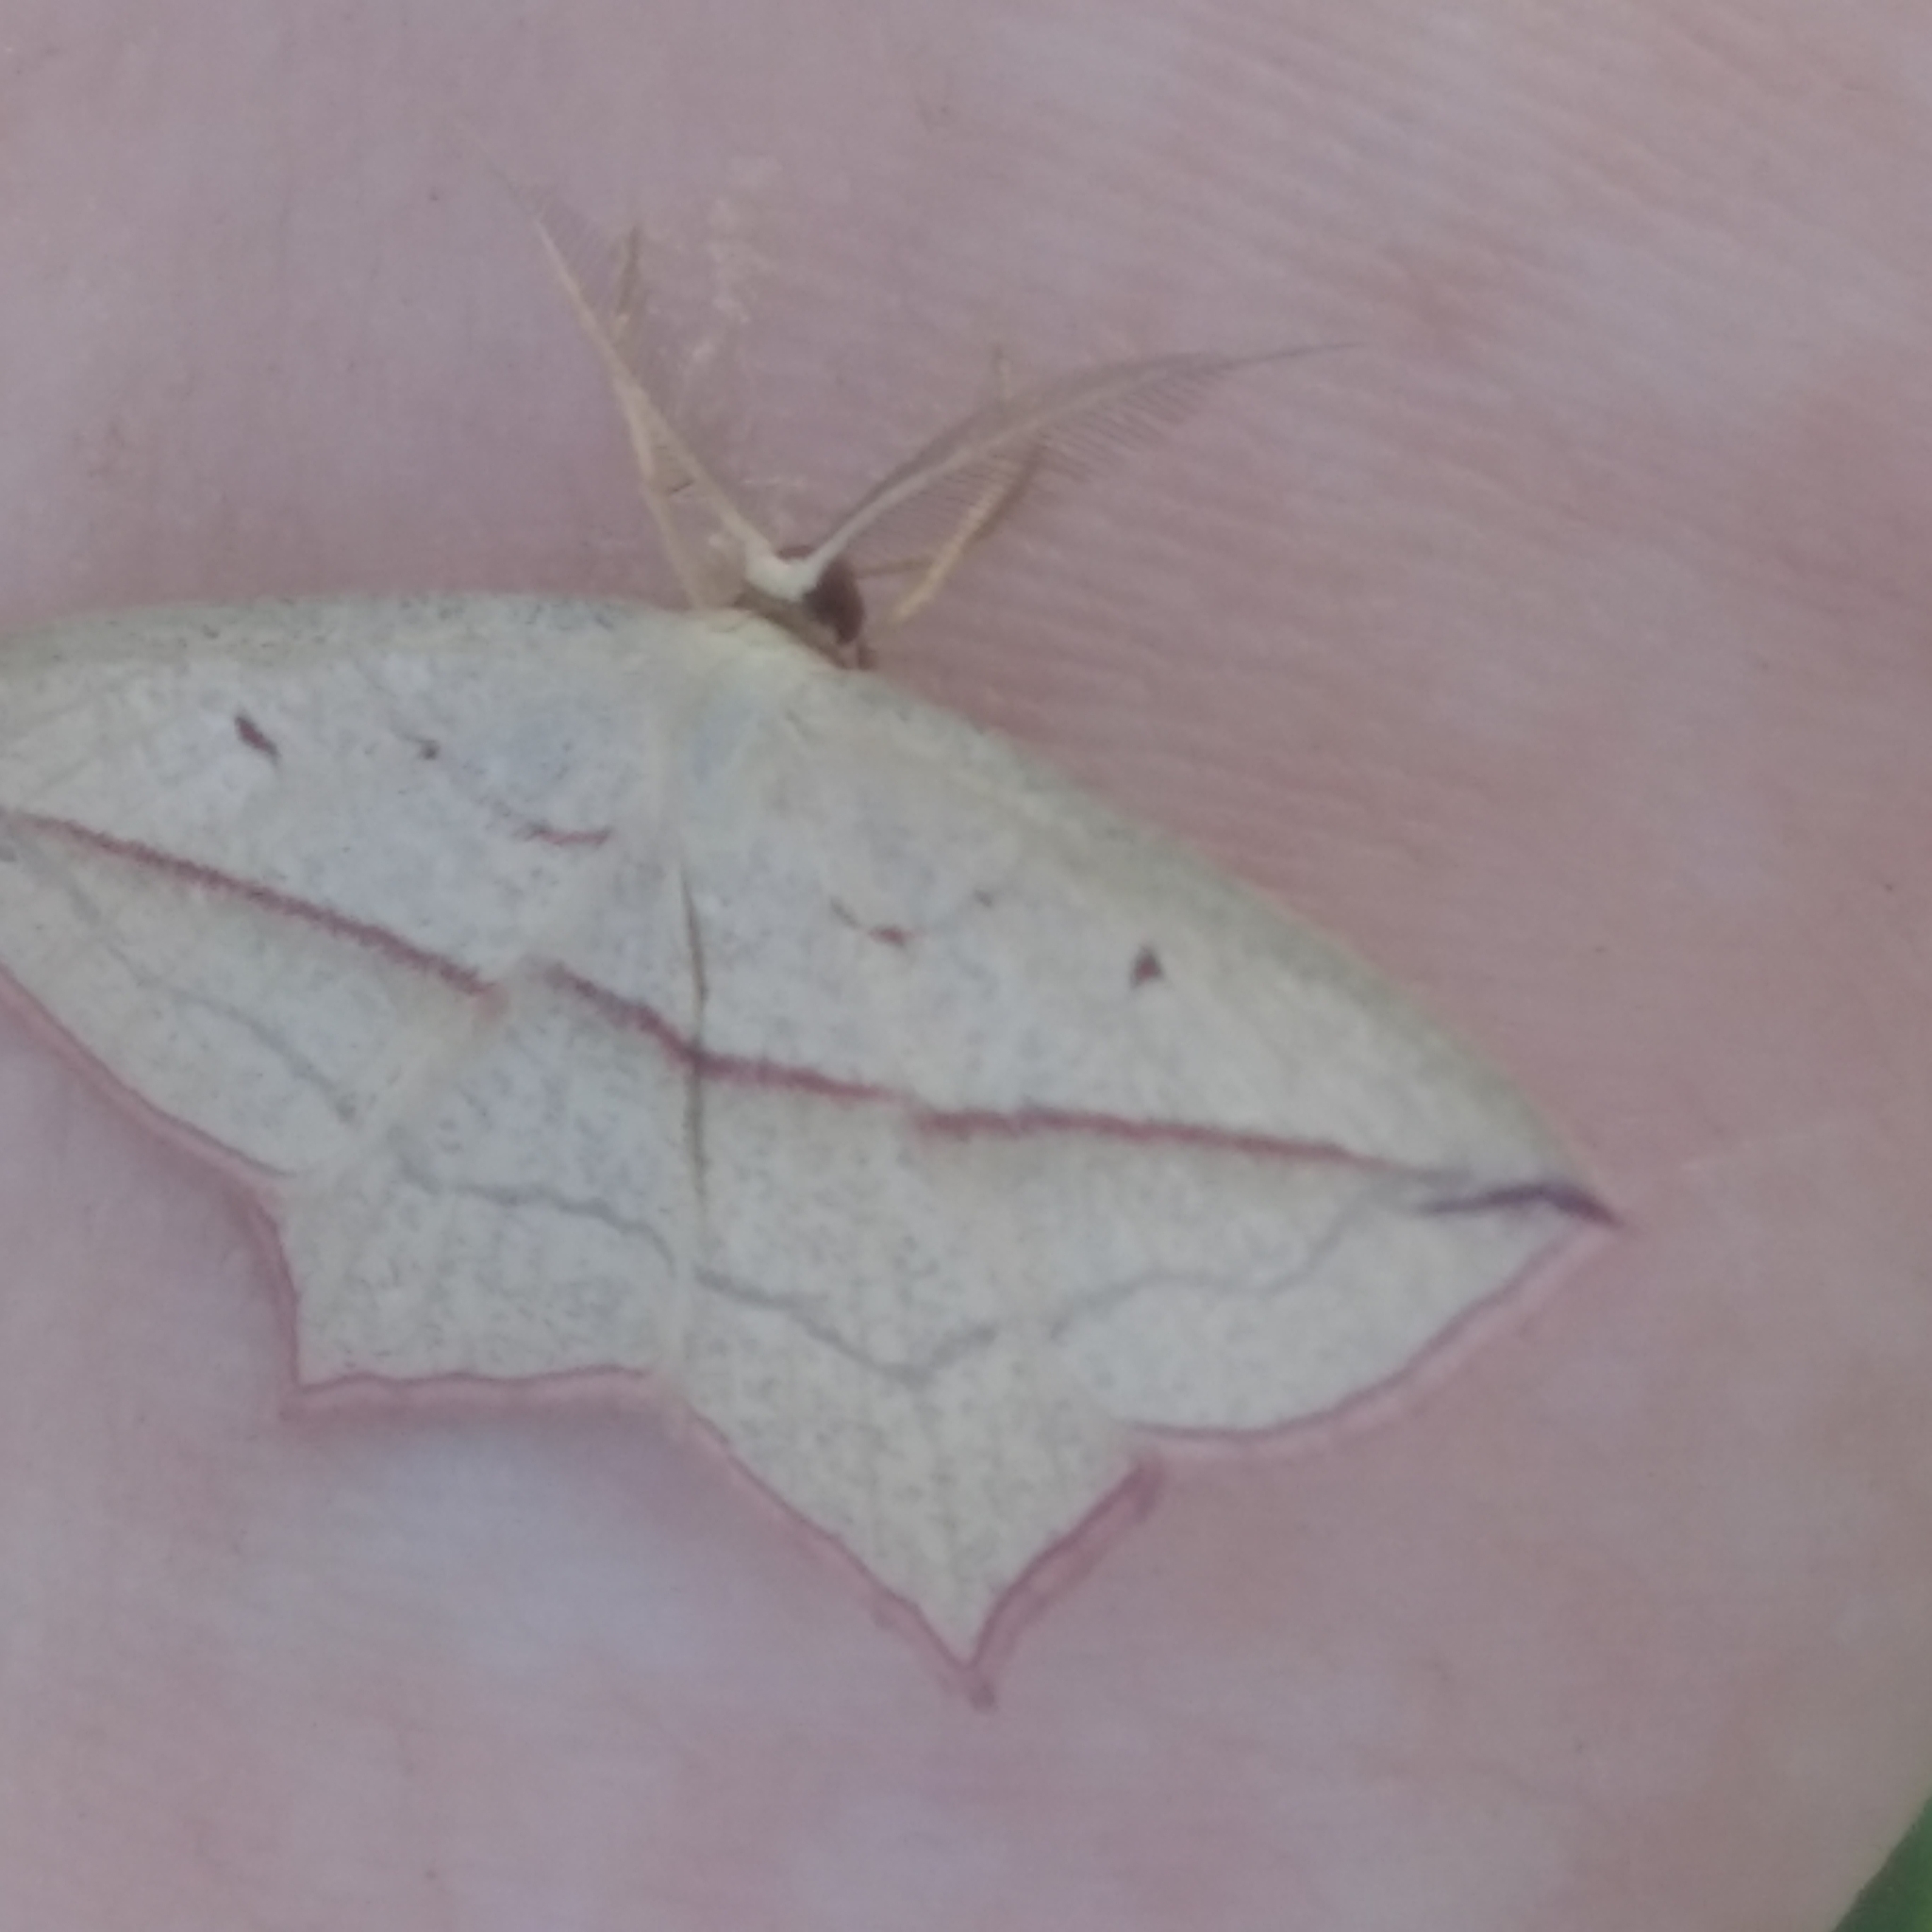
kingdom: Animalia
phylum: Arthropoda
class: Insecta
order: Lepidoptera
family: Geometridae
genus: Timandra
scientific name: Timandra comae
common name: Blood-vein
